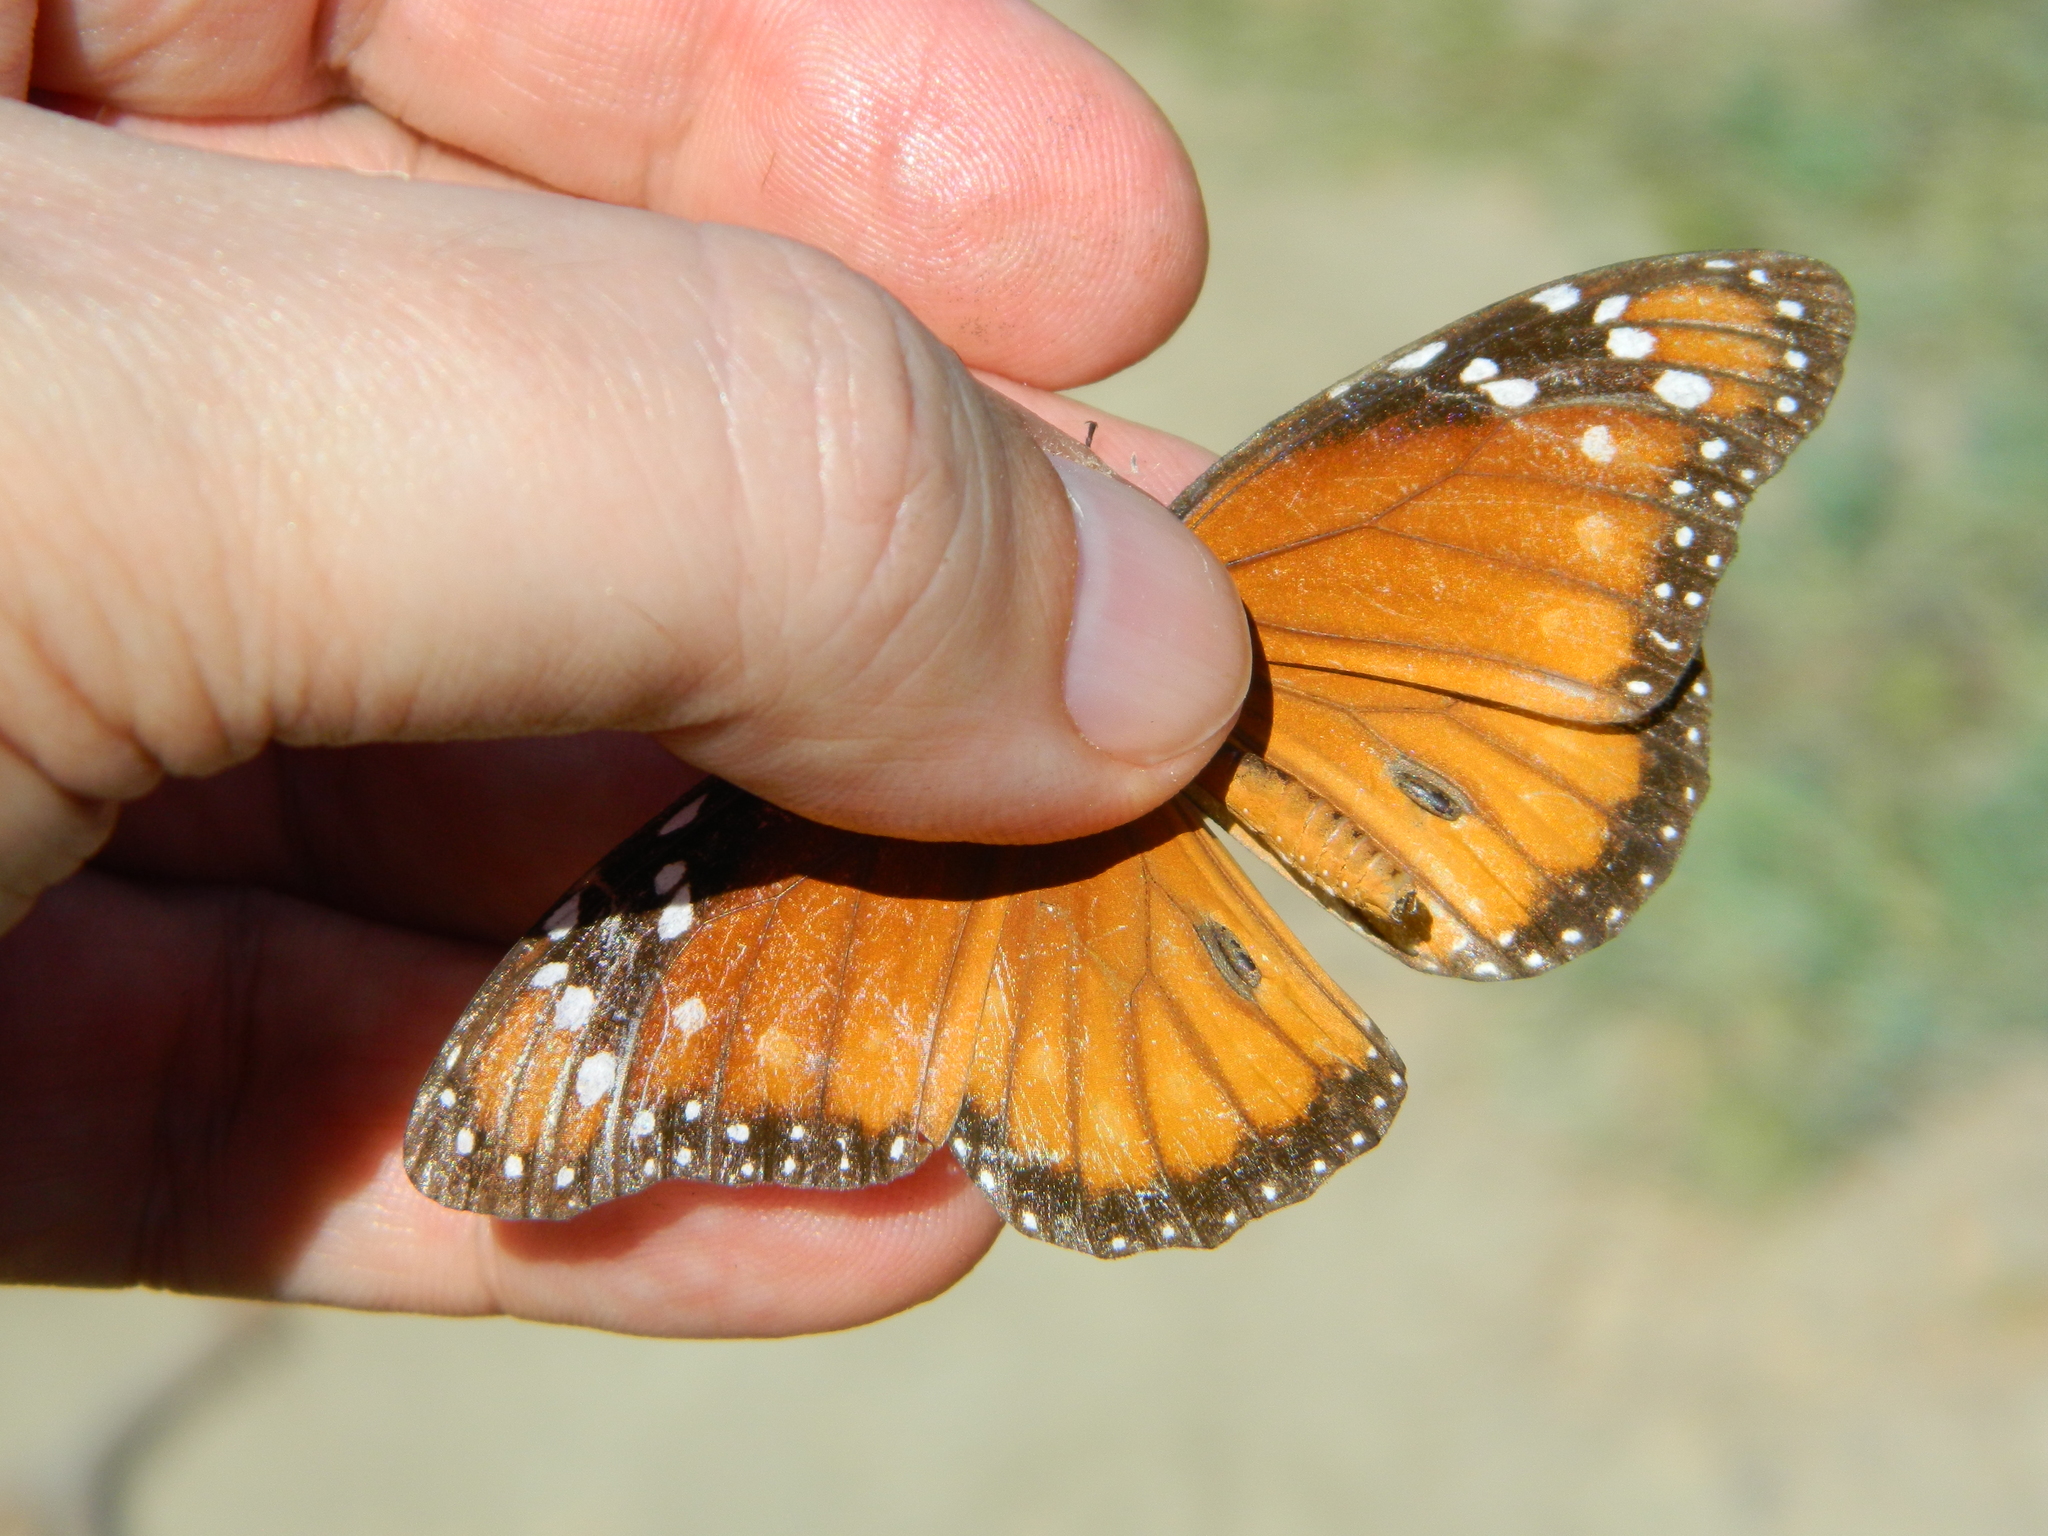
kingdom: Animalia
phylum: Arthropoda
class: Insecta
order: Lepidoptera
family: Nymphalidae
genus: Danaus
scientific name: Danaus gilippus
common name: Queen
